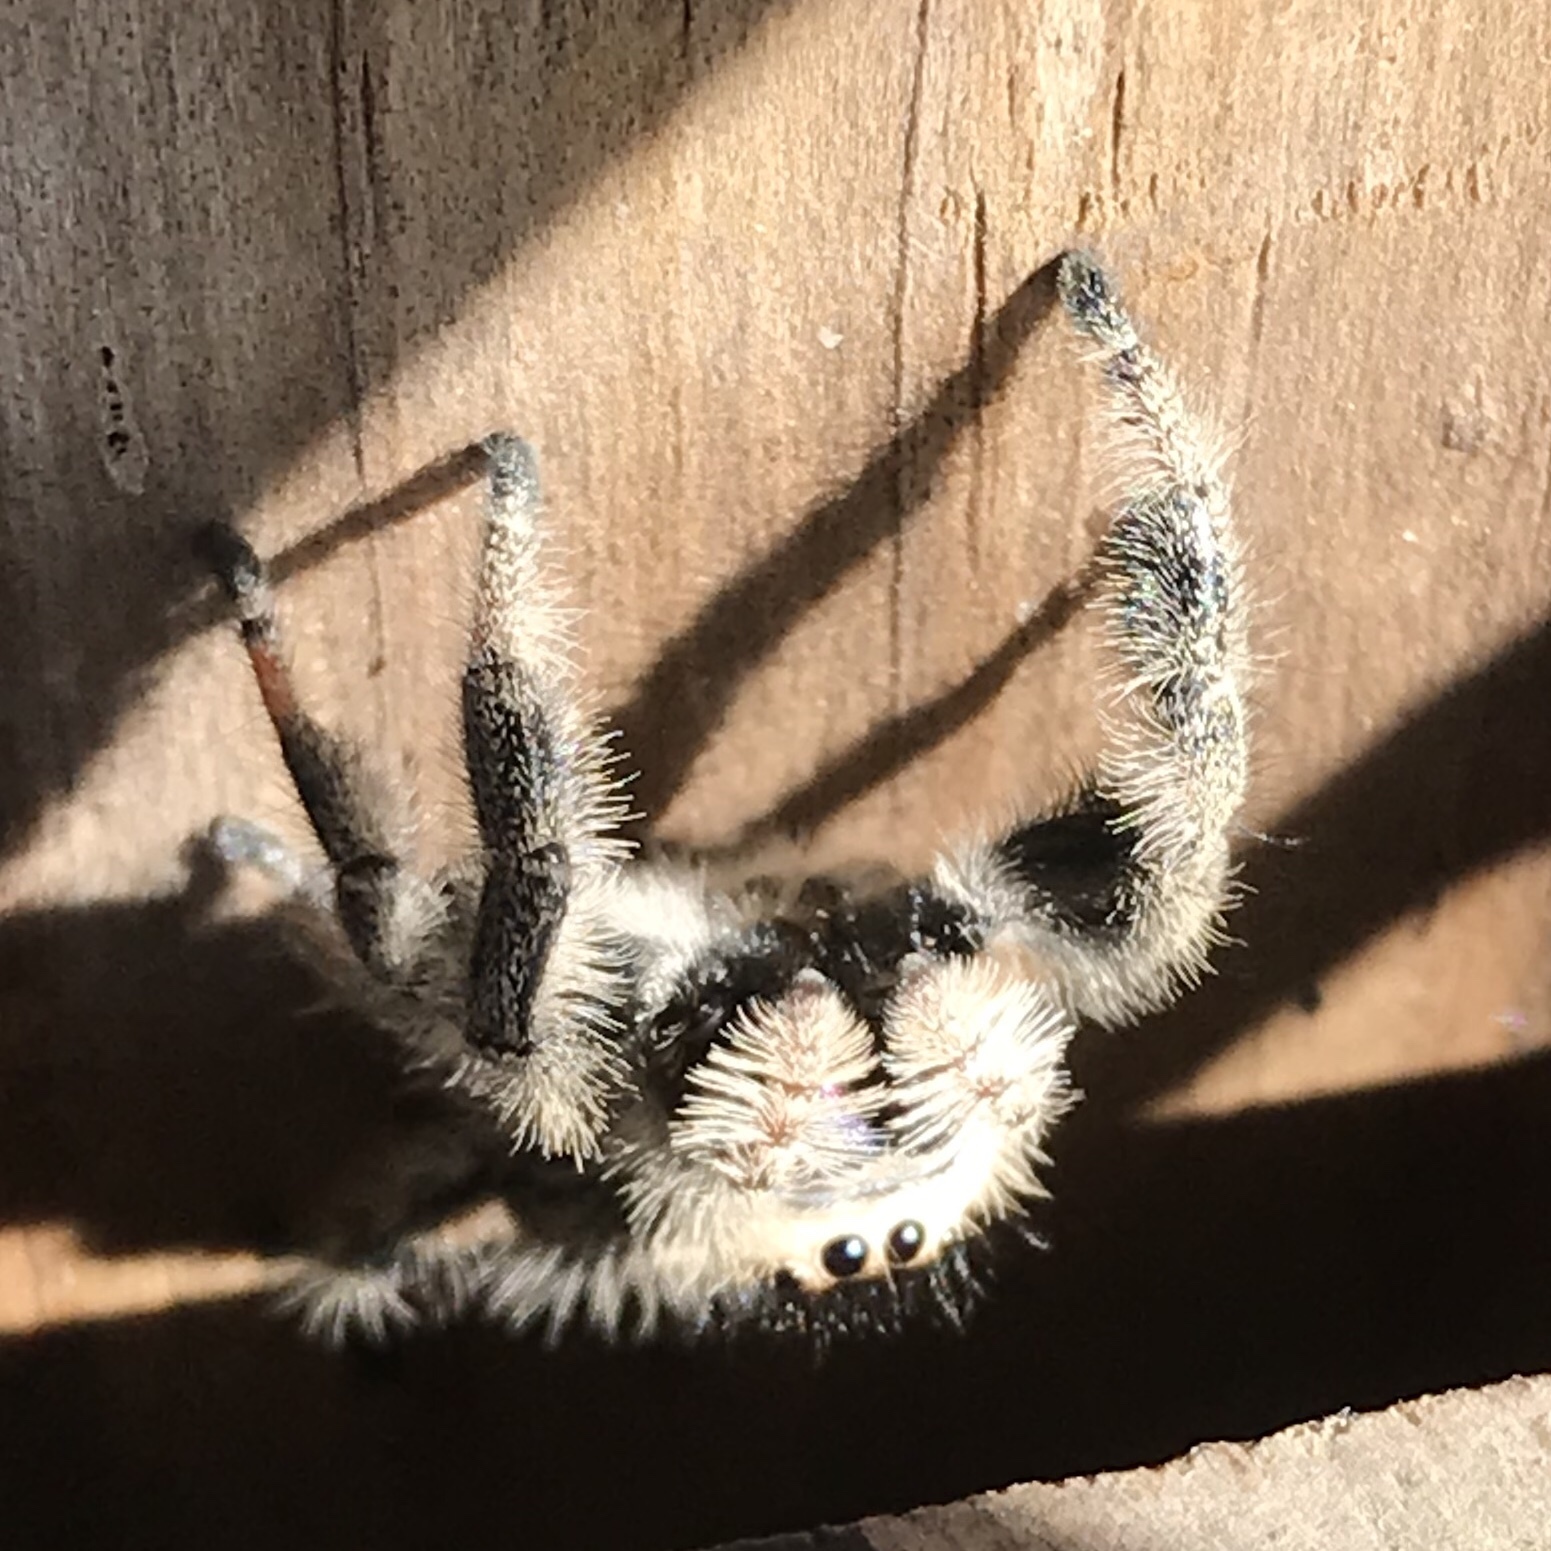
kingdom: Animalia
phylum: Arthropoda
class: Arachnida
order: Araneae
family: Salticidae
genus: Phidippus
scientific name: Phidippus regius
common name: Regal jumper
